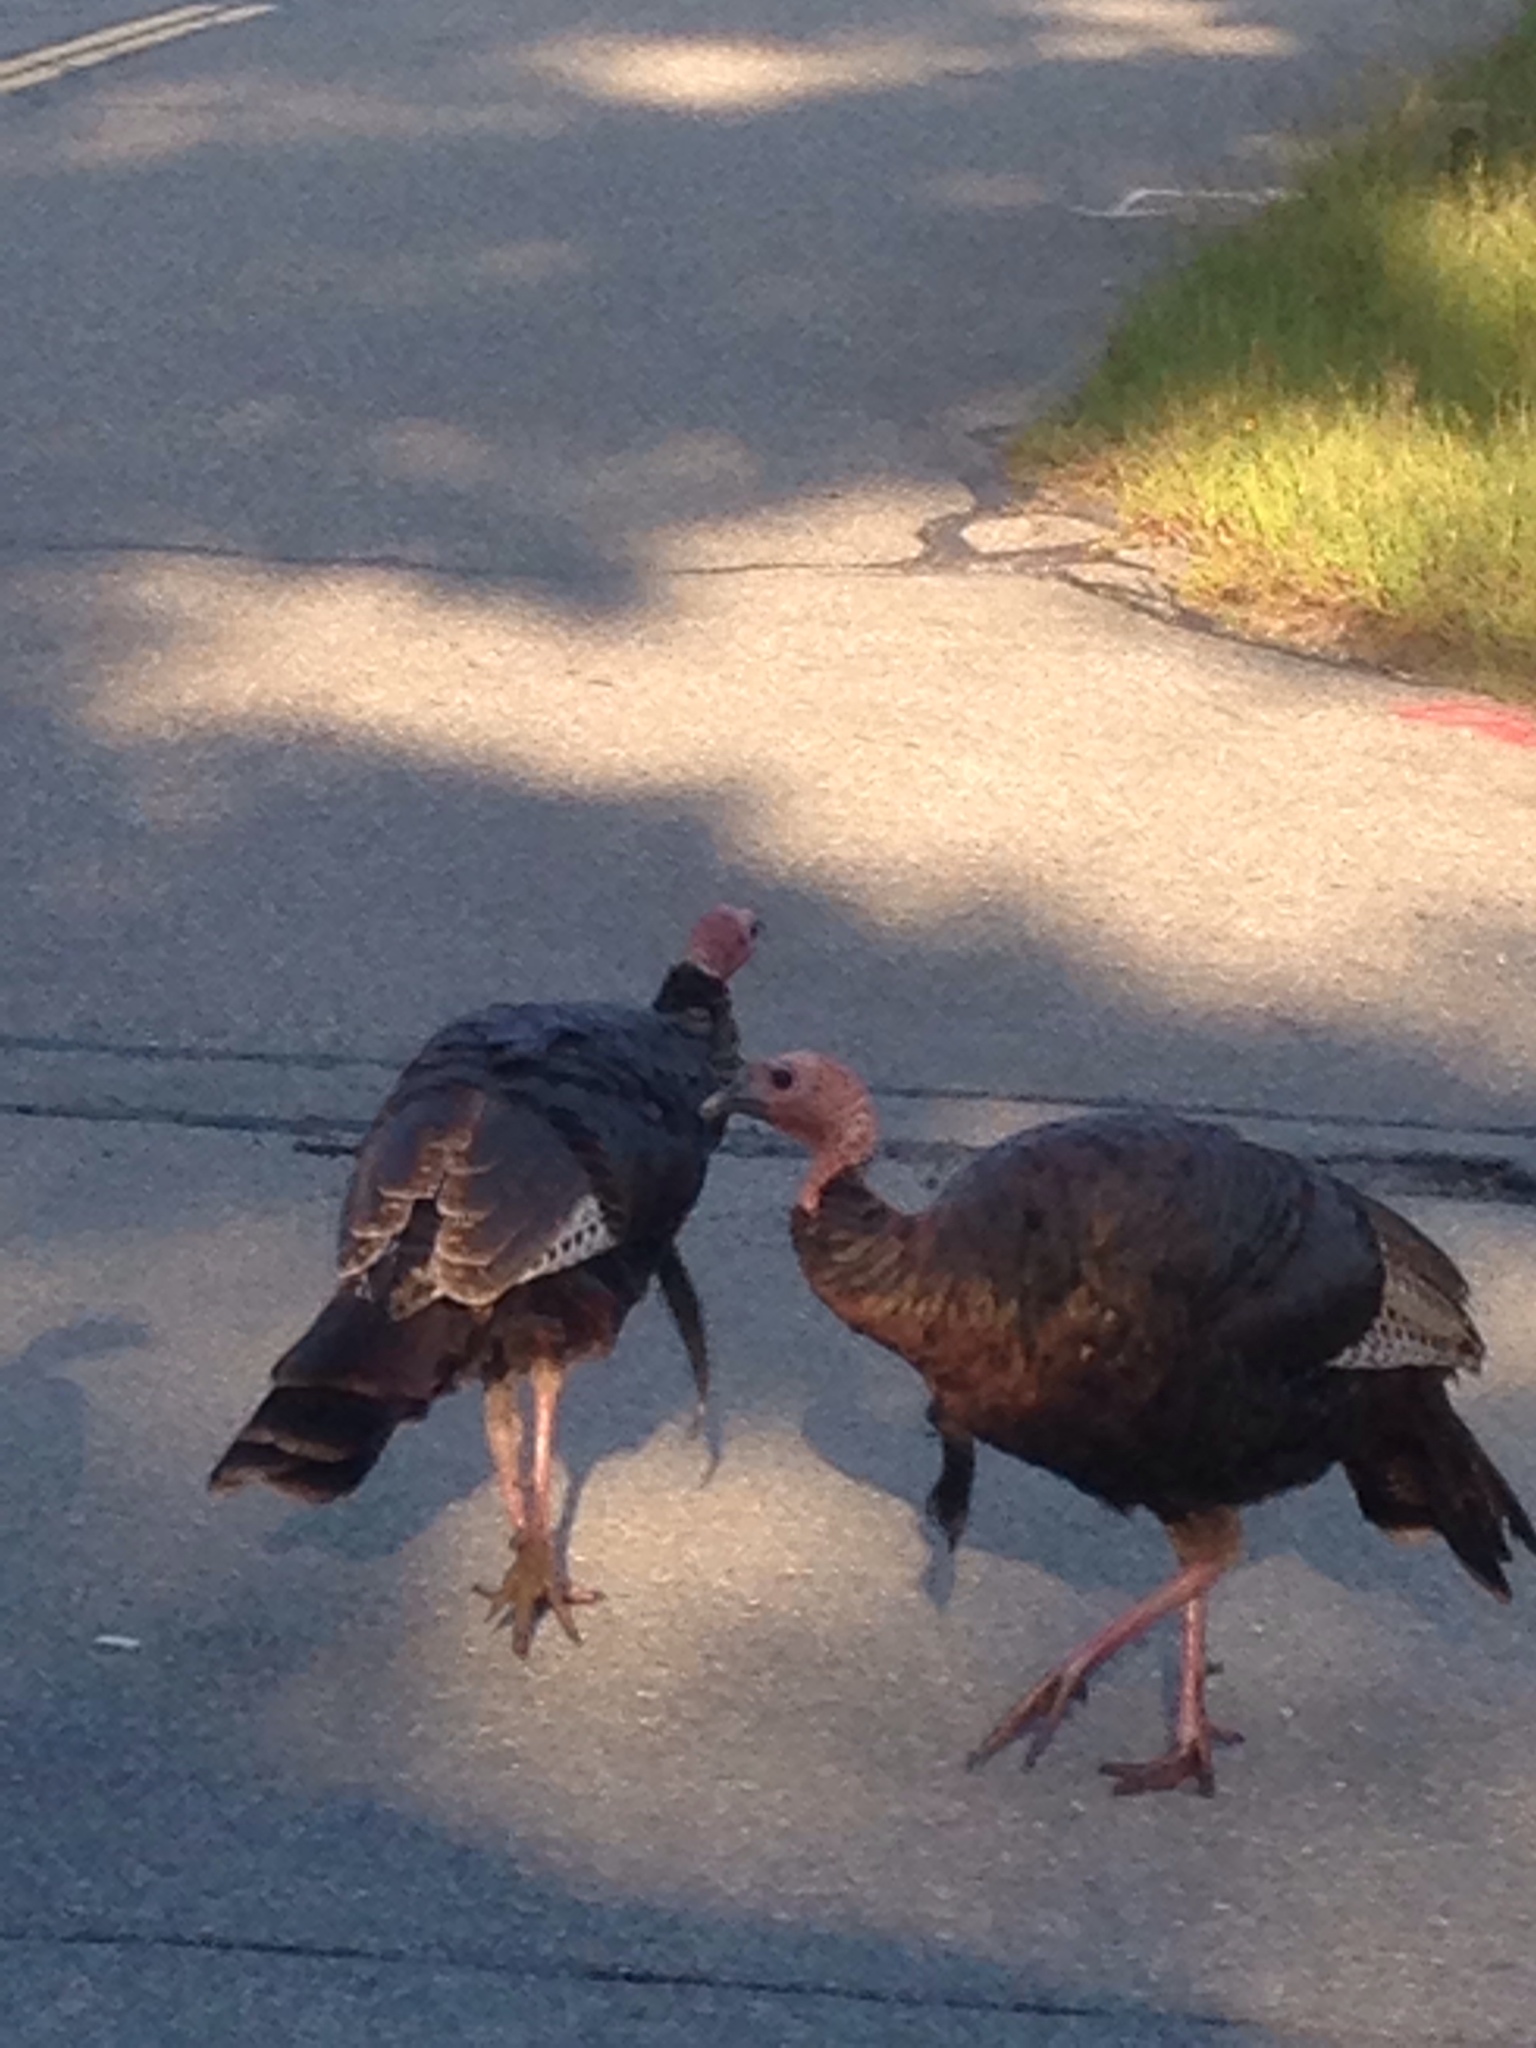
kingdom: Animalia
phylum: Chordata
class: Aves
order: Galliformes
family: Phasianidae
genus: Meleagris
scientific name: Meleagris gallopavo
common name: Wild turkey
